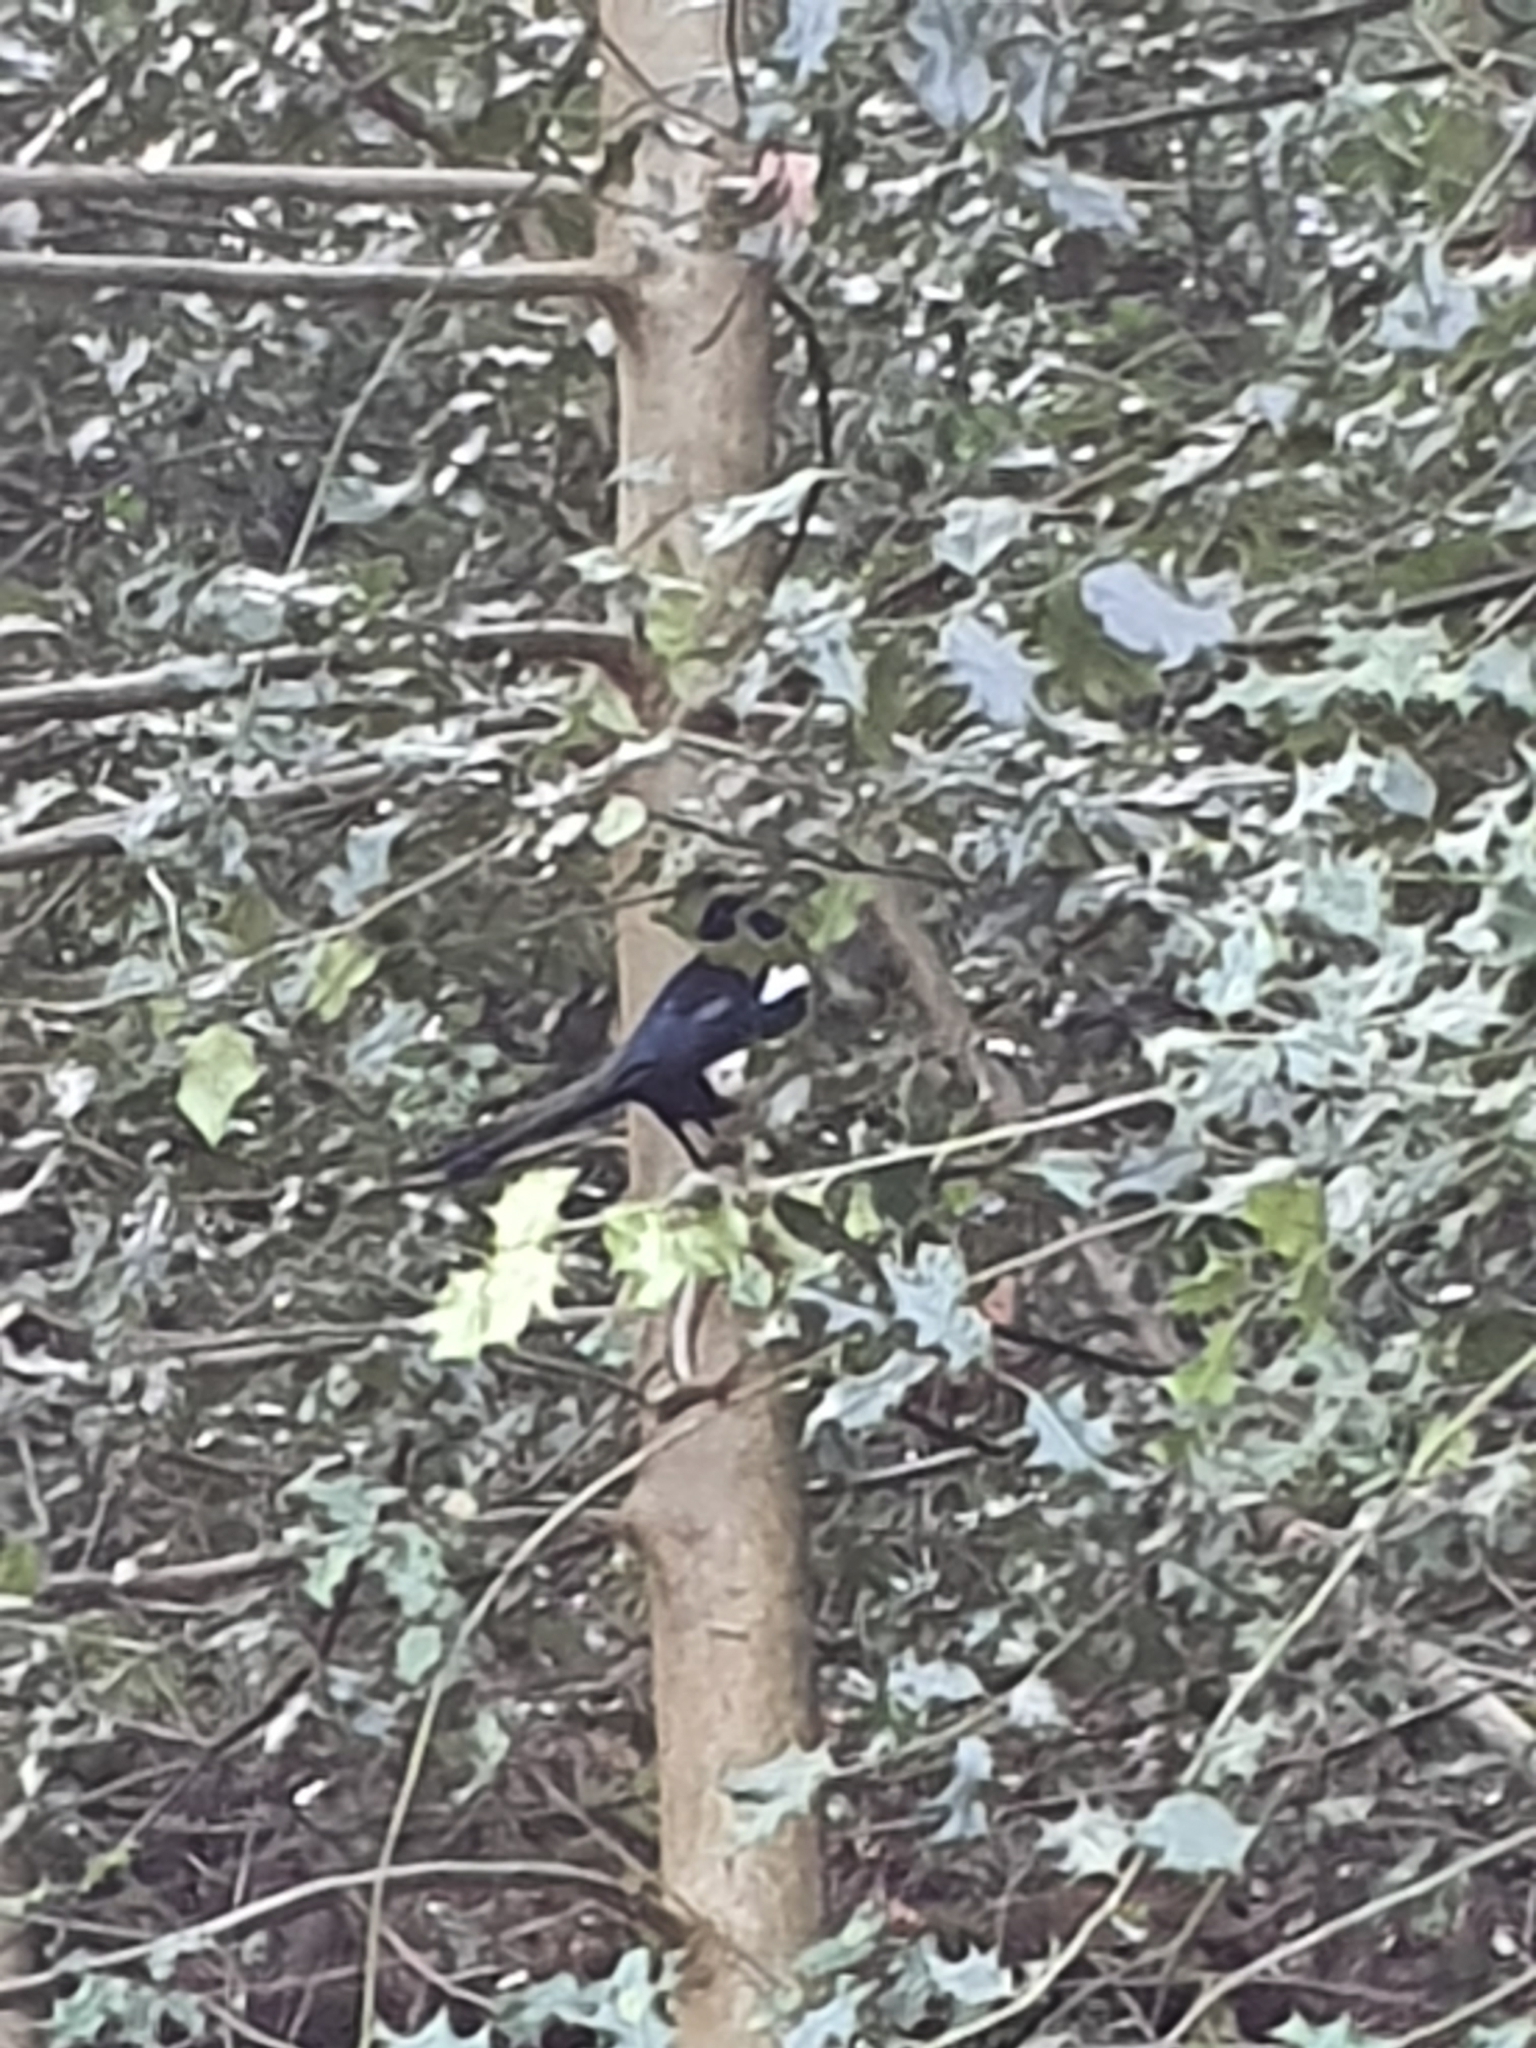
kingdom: Animalia
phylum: Chordata
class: Aves
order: Passeriformes
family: Corvidae
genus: Pica
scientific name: Pica pica
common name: Eurasian magpie
